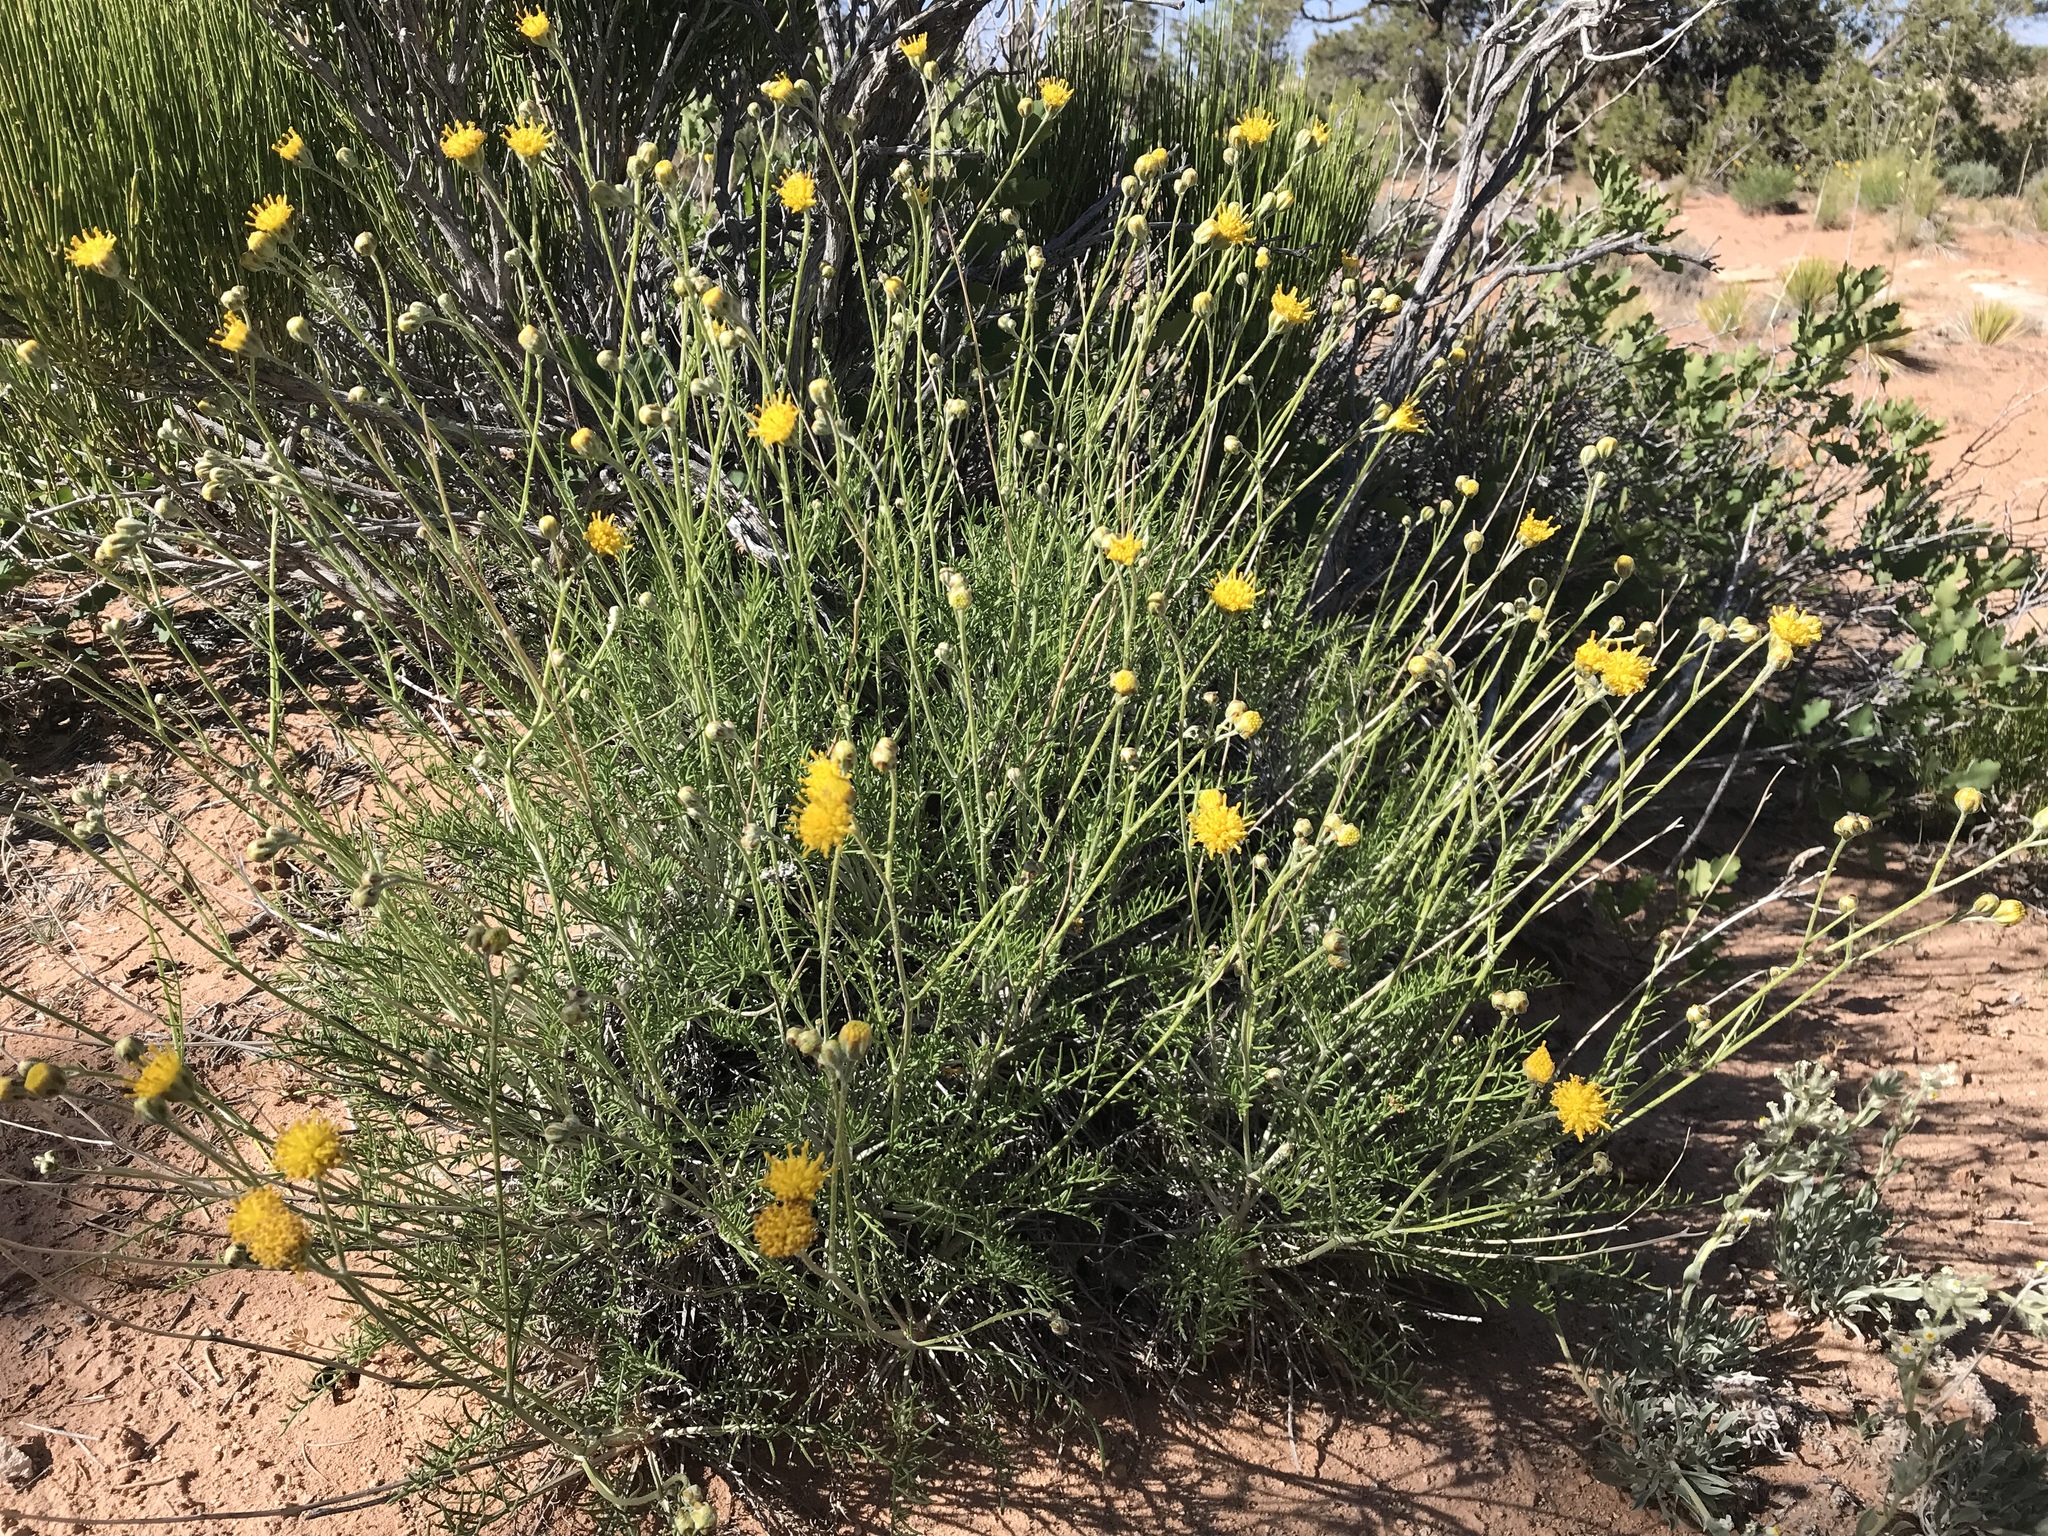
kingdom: Plantae
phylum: Tracheophyta
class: Magnoliopsida
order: Asterales
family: Asteraceae
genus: Hymenopappus
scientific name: Hymenopappus filifolius
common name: Columbia cutleaf
